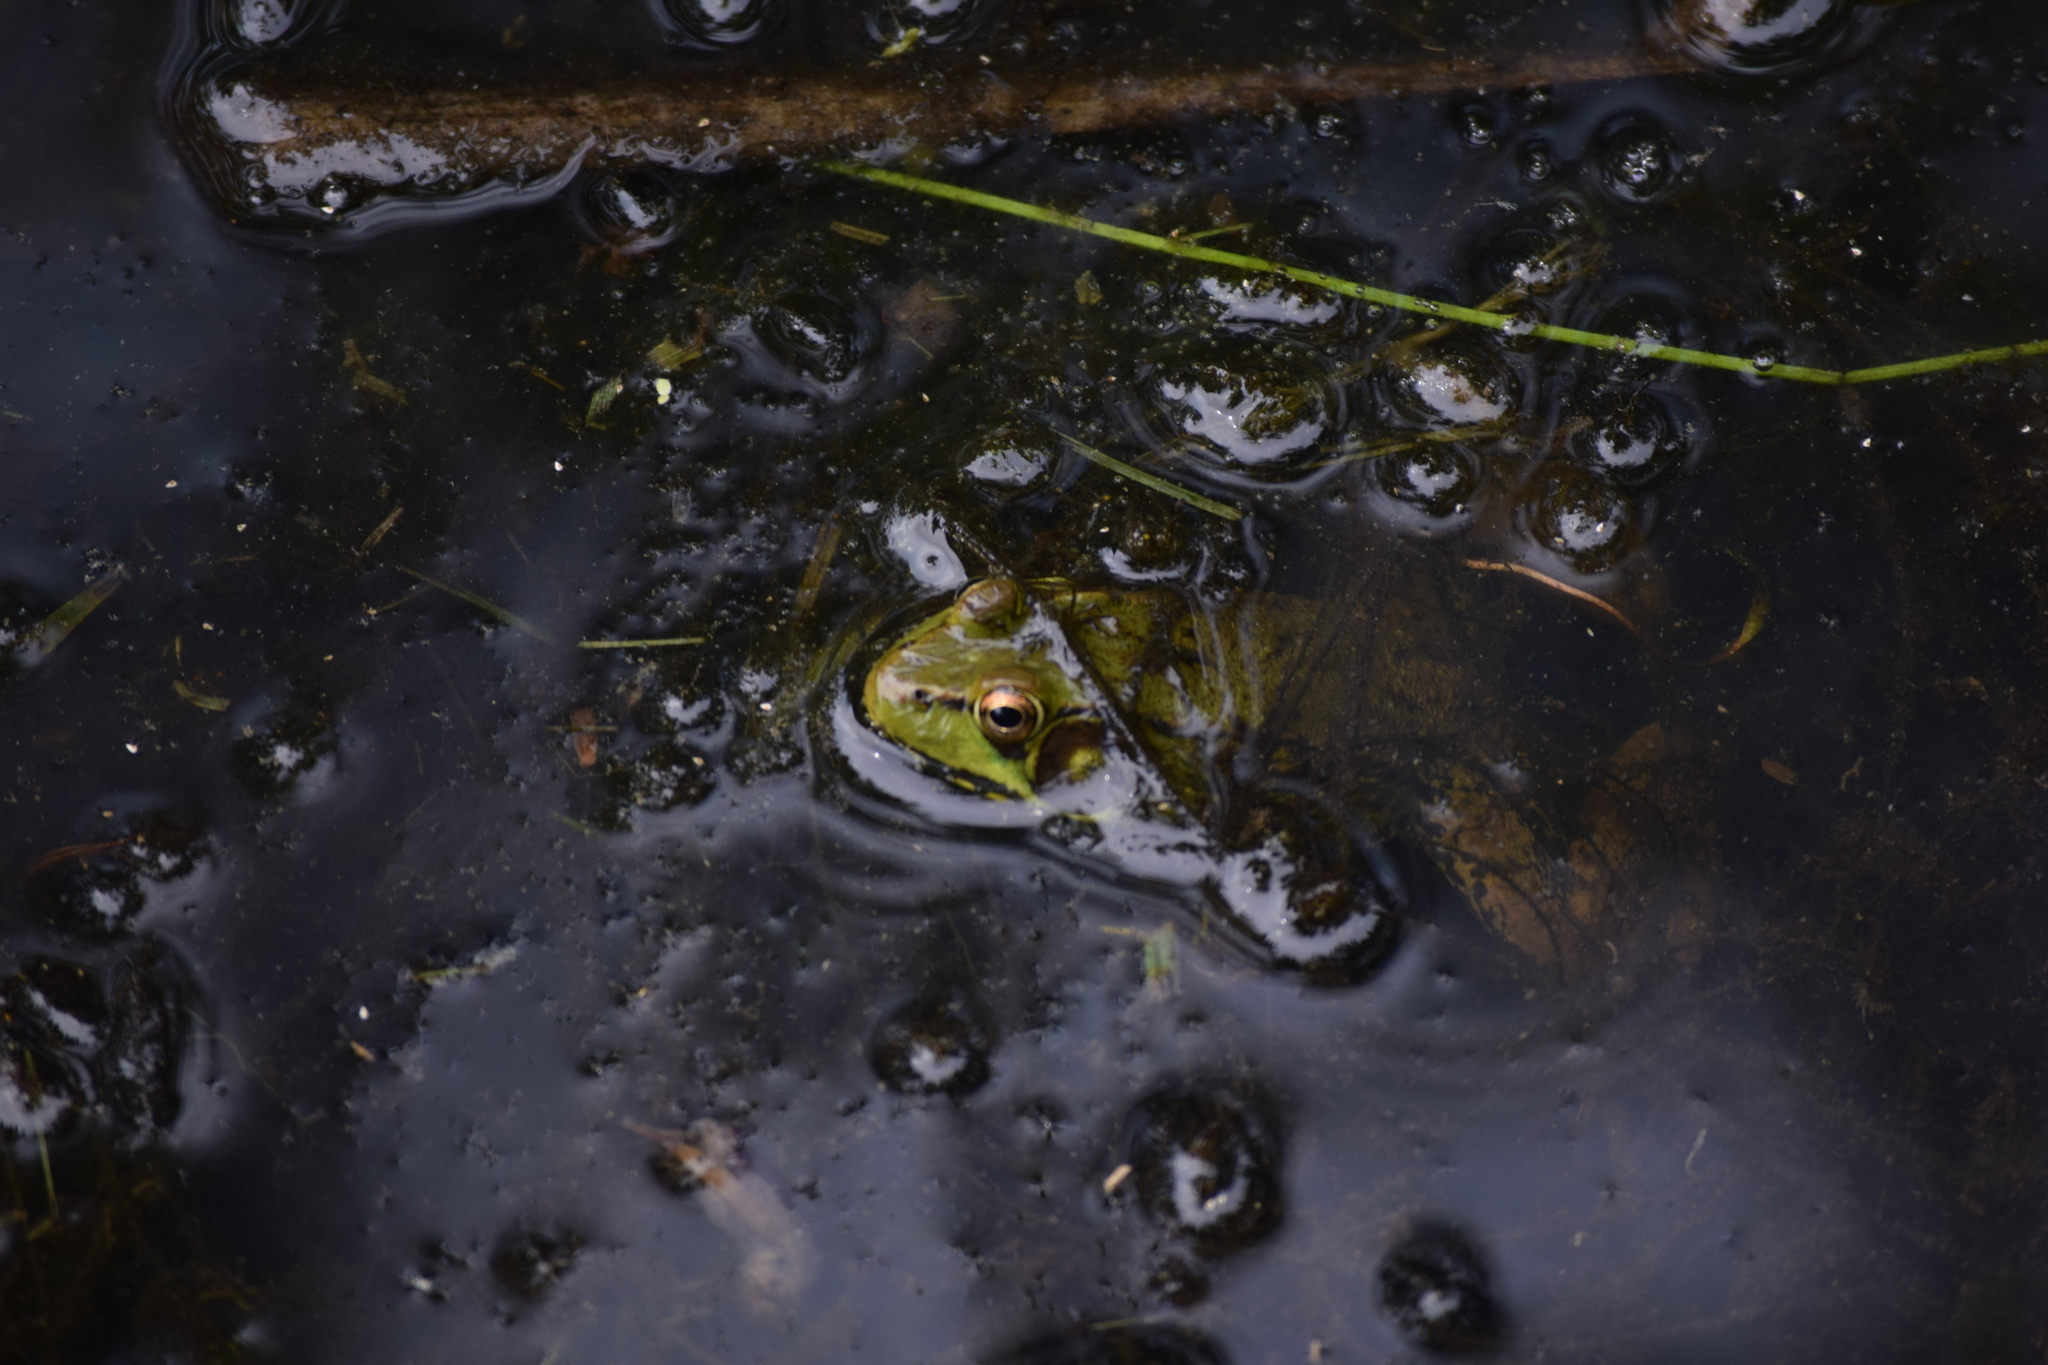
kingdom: Animalia
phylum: Chordata
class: Amphibia
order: Anura
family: Ranidae
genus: Lithobates
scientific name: Lithobates clamitans
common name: Green frog
